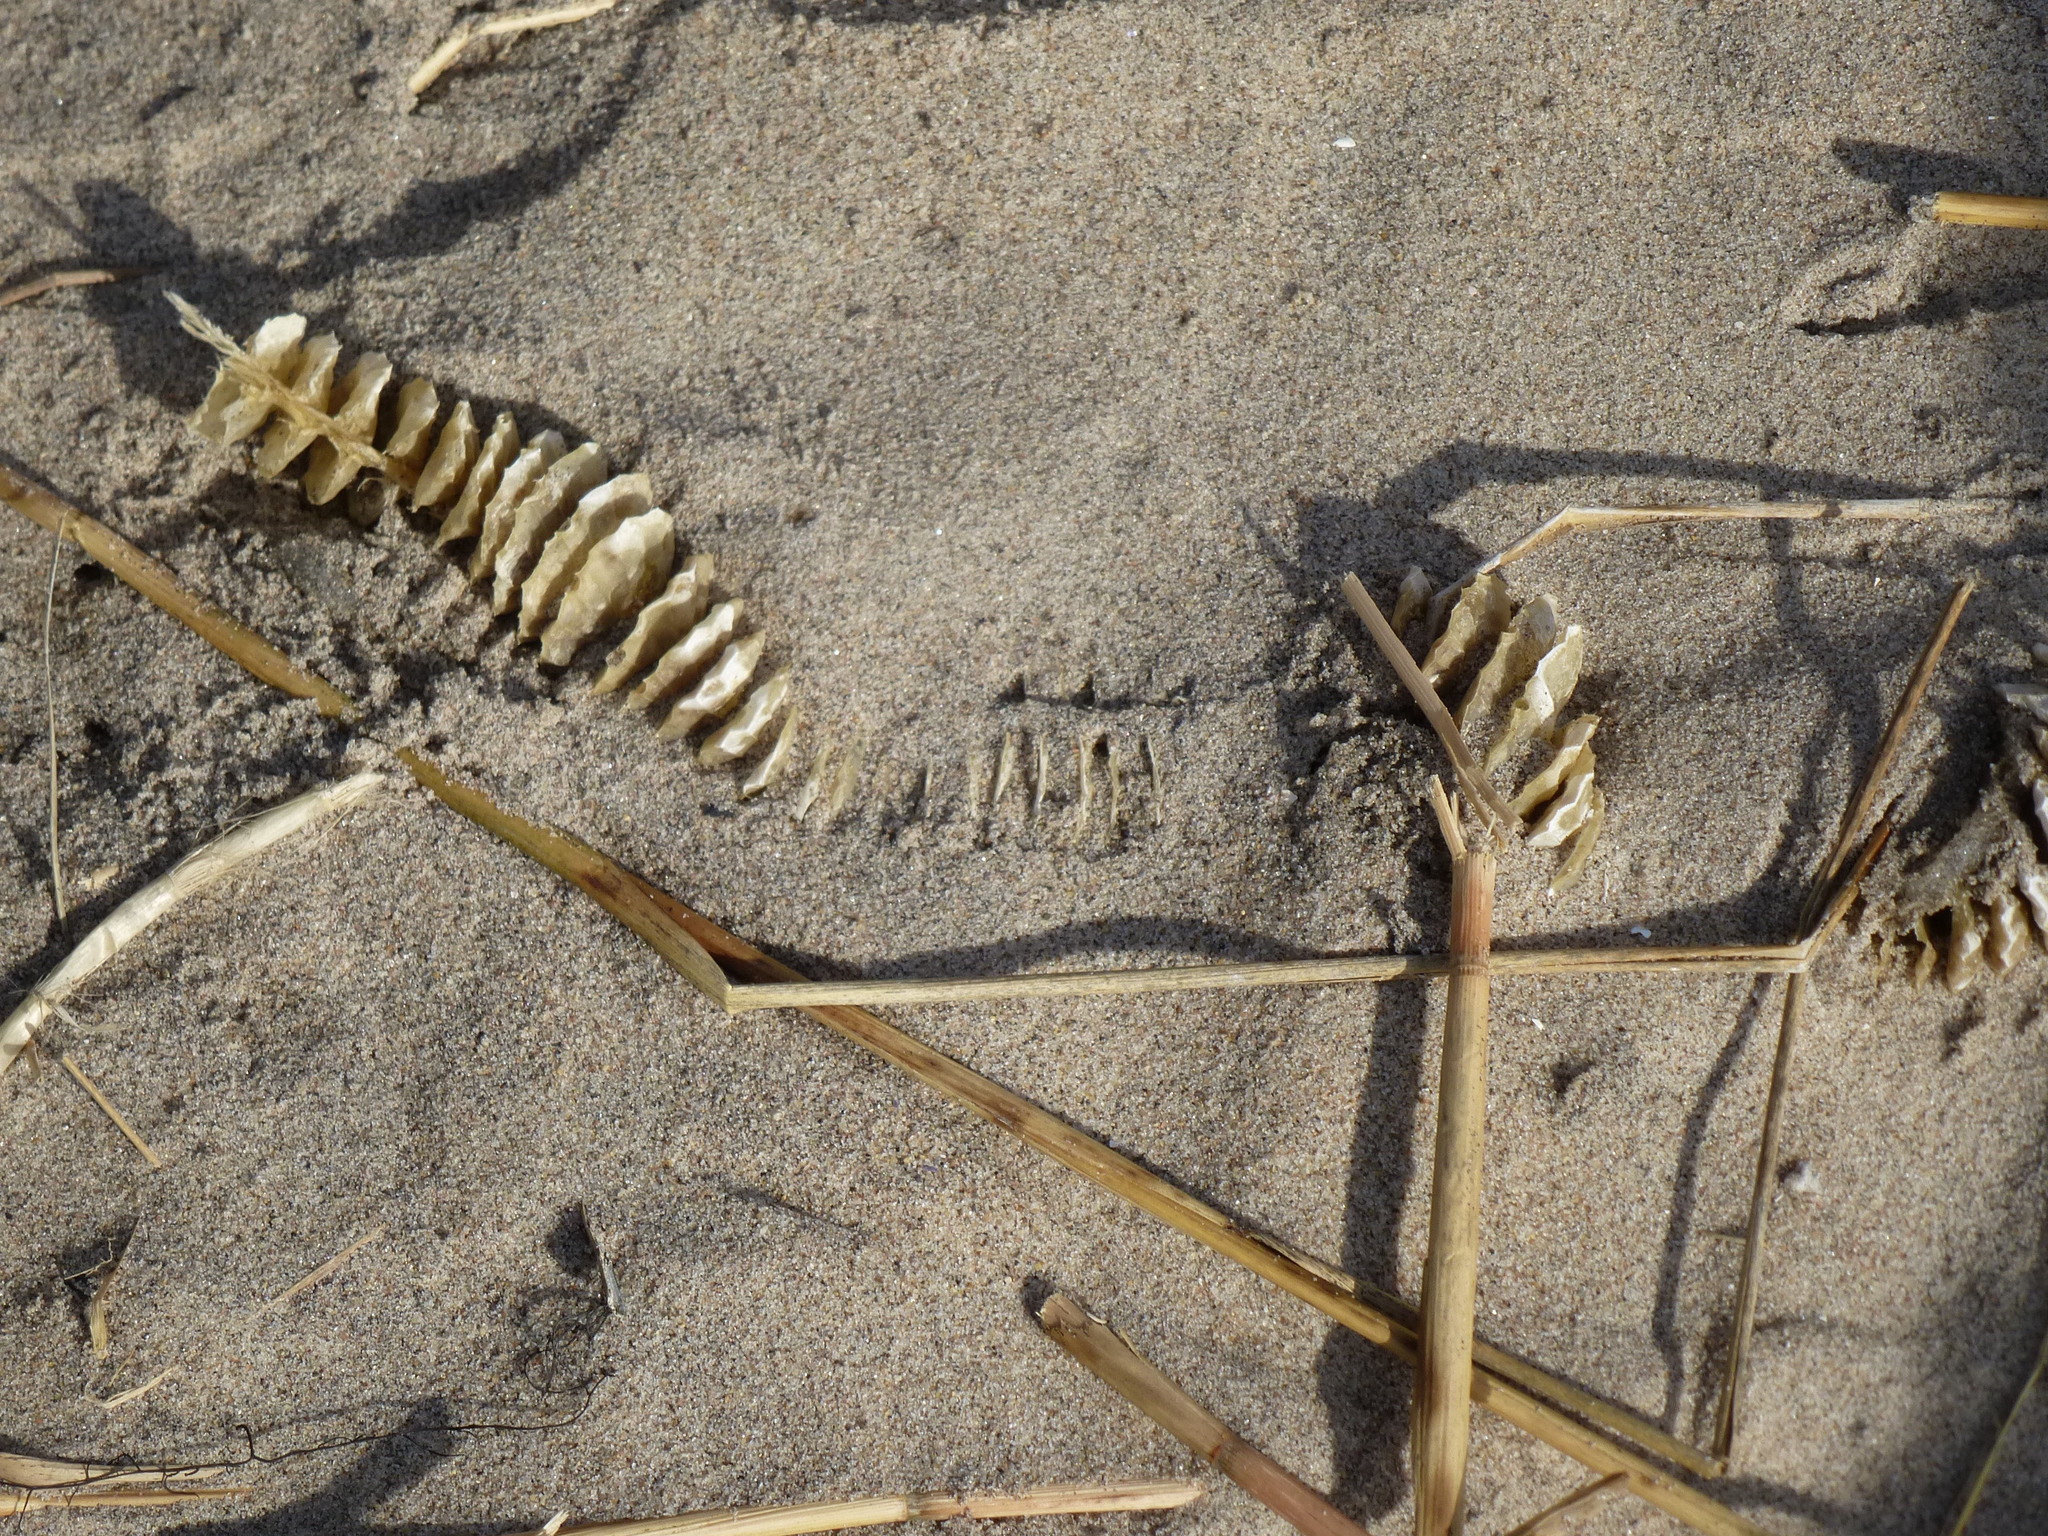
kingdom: Animalia
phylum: Mollusca
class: Gastropoda
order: Neogastropoda
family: Busyconidae
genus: Busycotypus
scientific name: Busycotypus canaliculatus
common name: Channeled whelk
